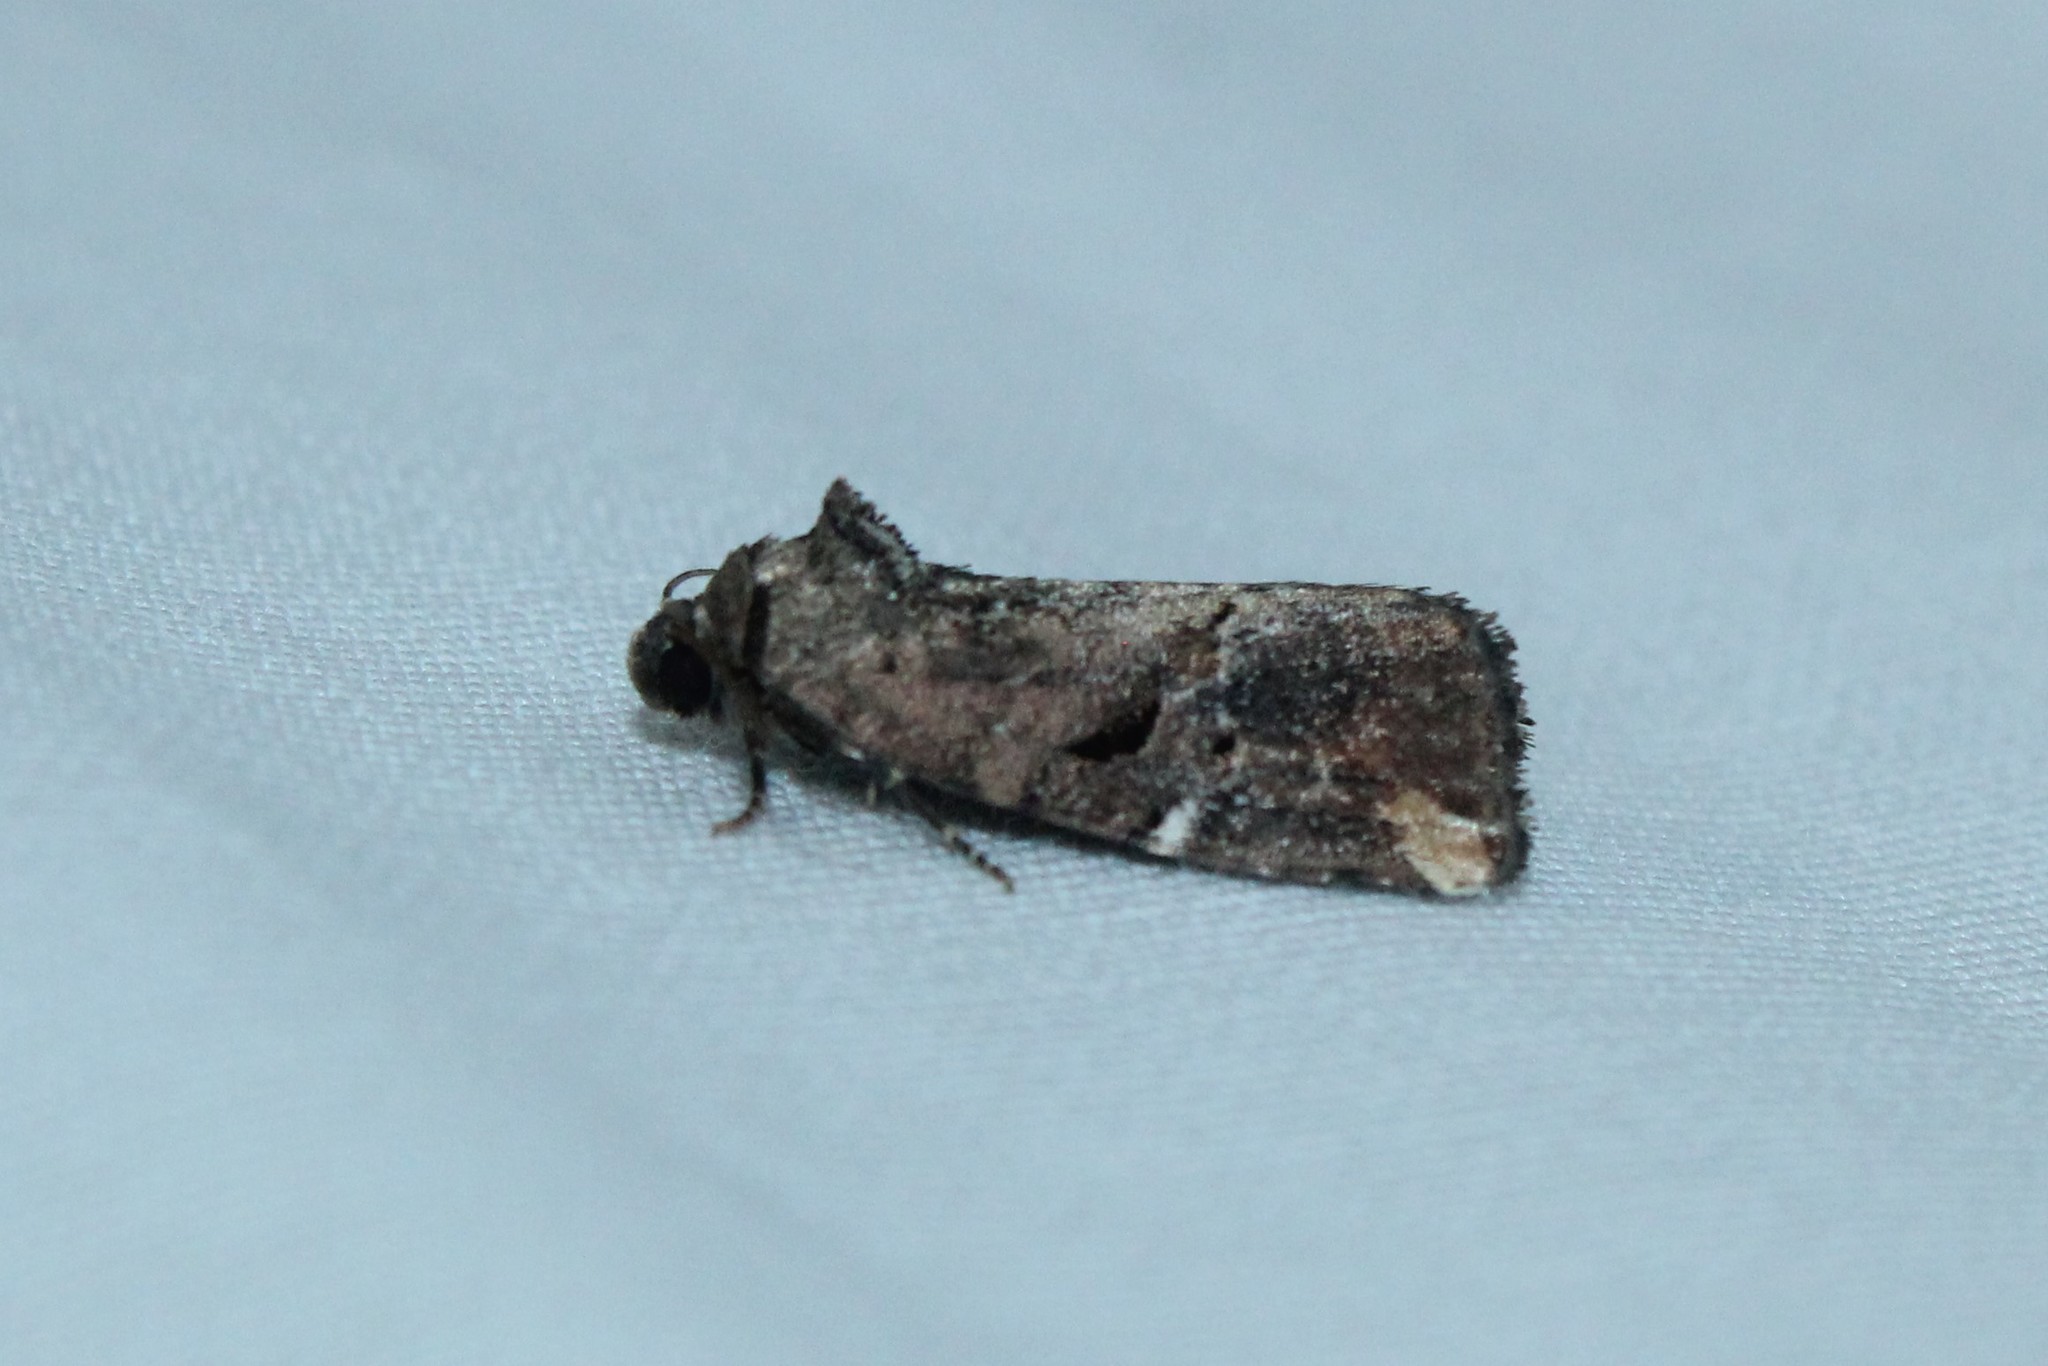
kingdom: Animalia
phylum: Arthropoda
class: Insecta
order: Lepidoptera
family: Noctuidae
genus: Elaphria
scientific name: Elaphria versicolor
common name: Fir harlequin
